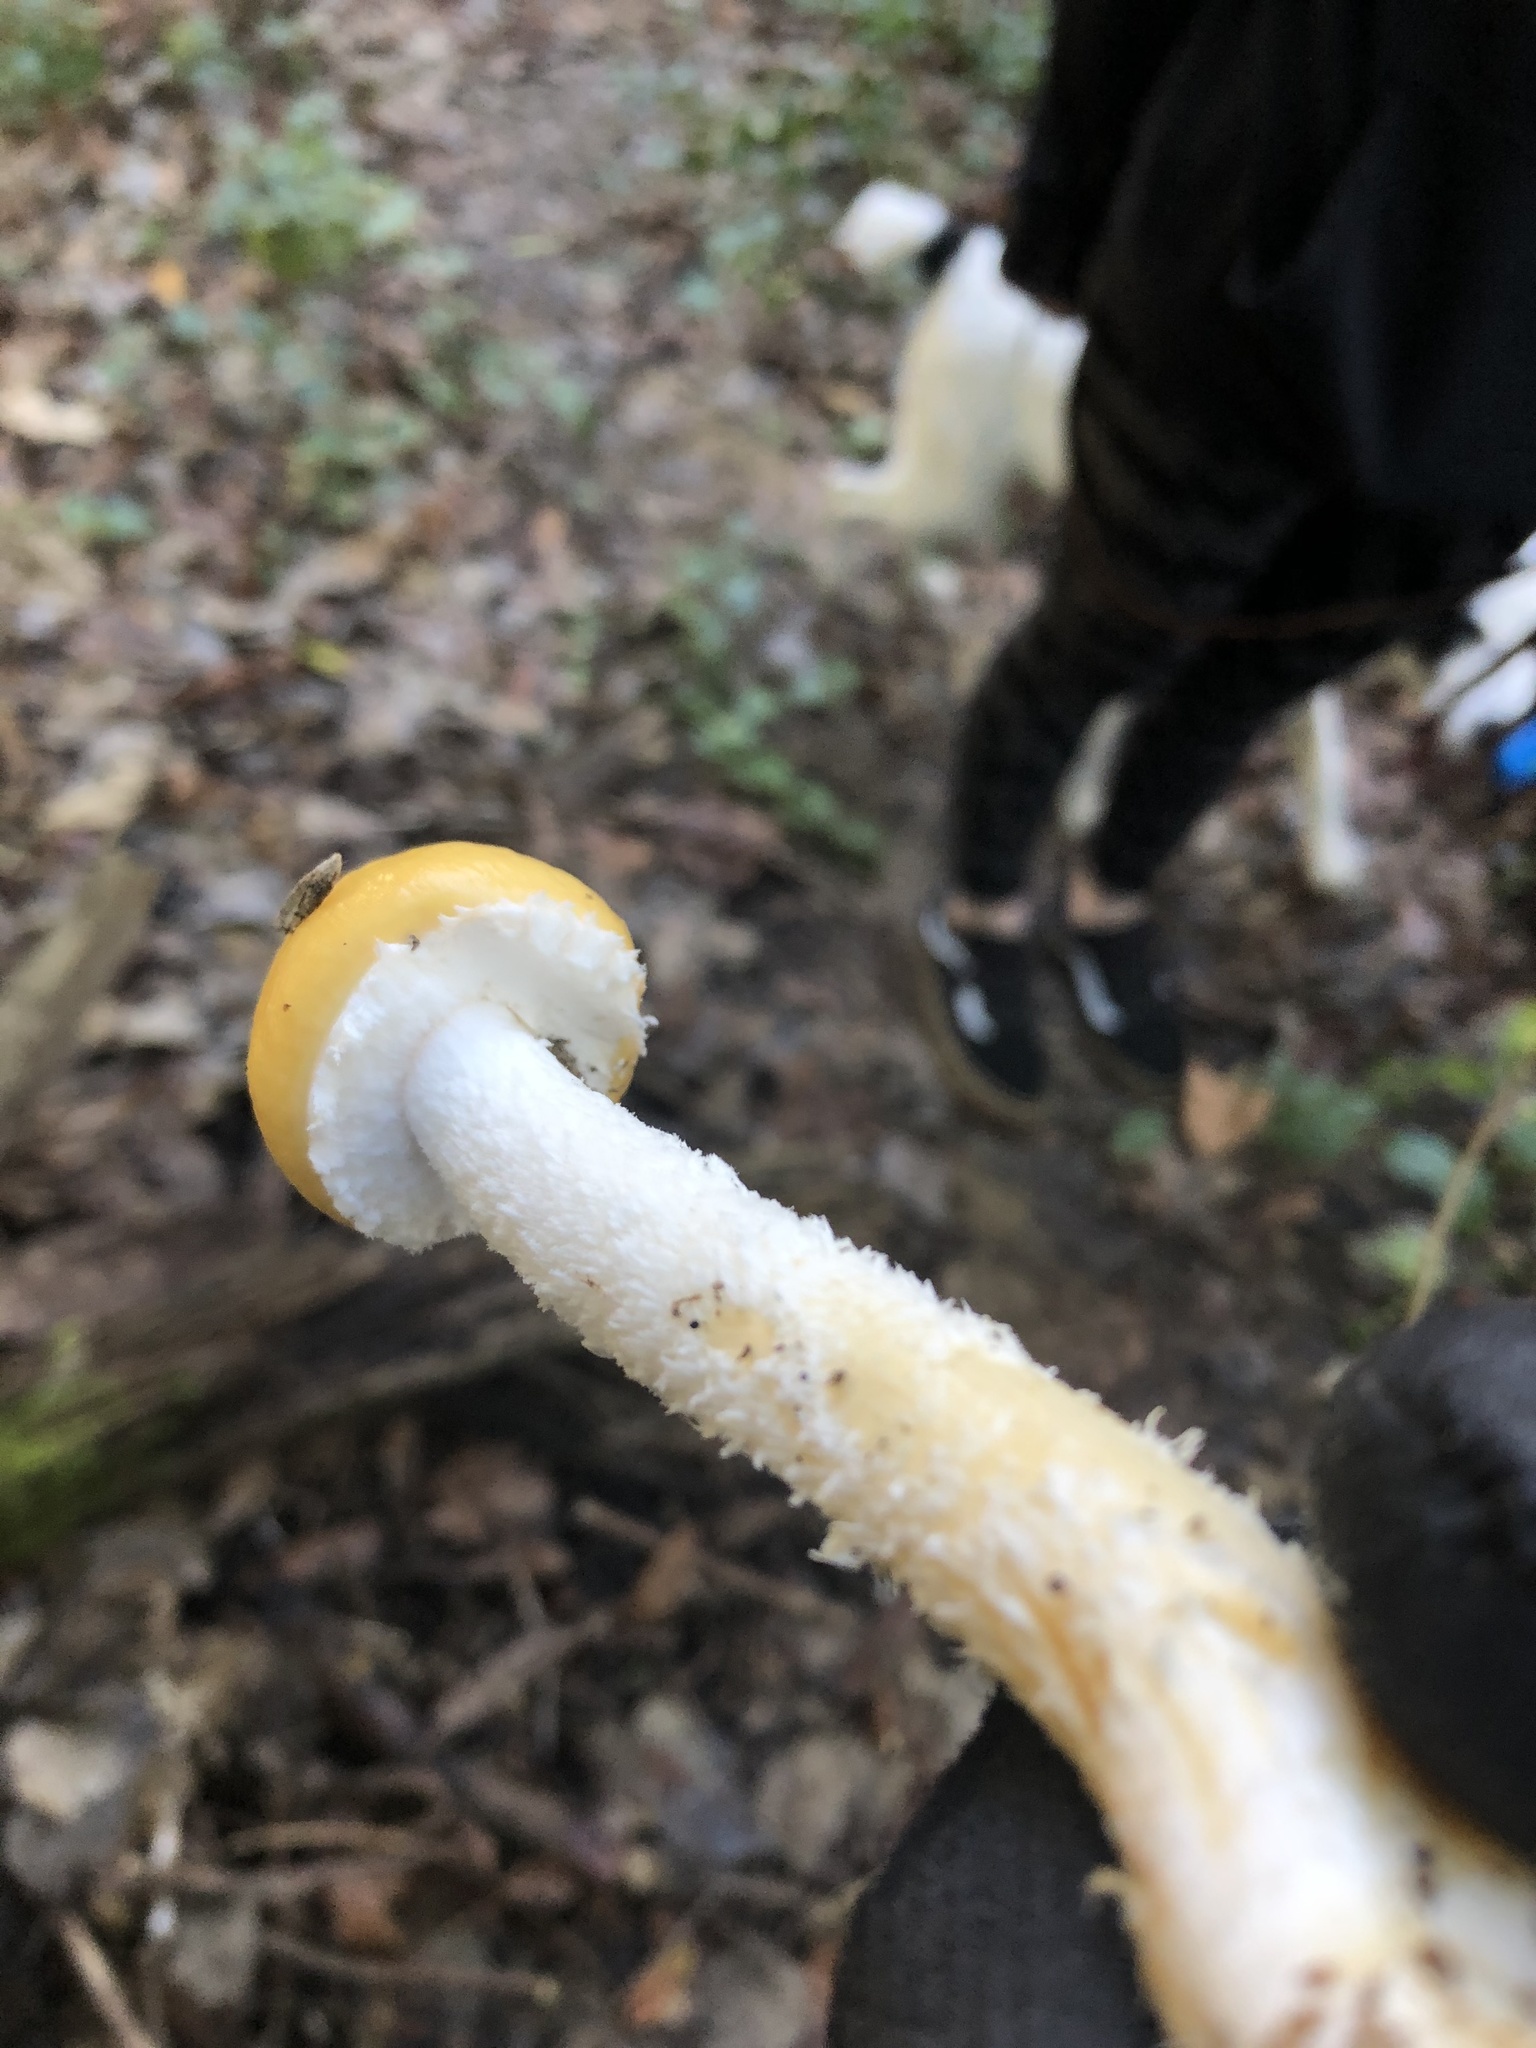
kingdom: Fungi
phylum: Basidiomycota
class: Agaricomycetes
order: Agaricales
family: Strophariaceae
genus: Stropharia
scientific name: Stropharia ambigua
